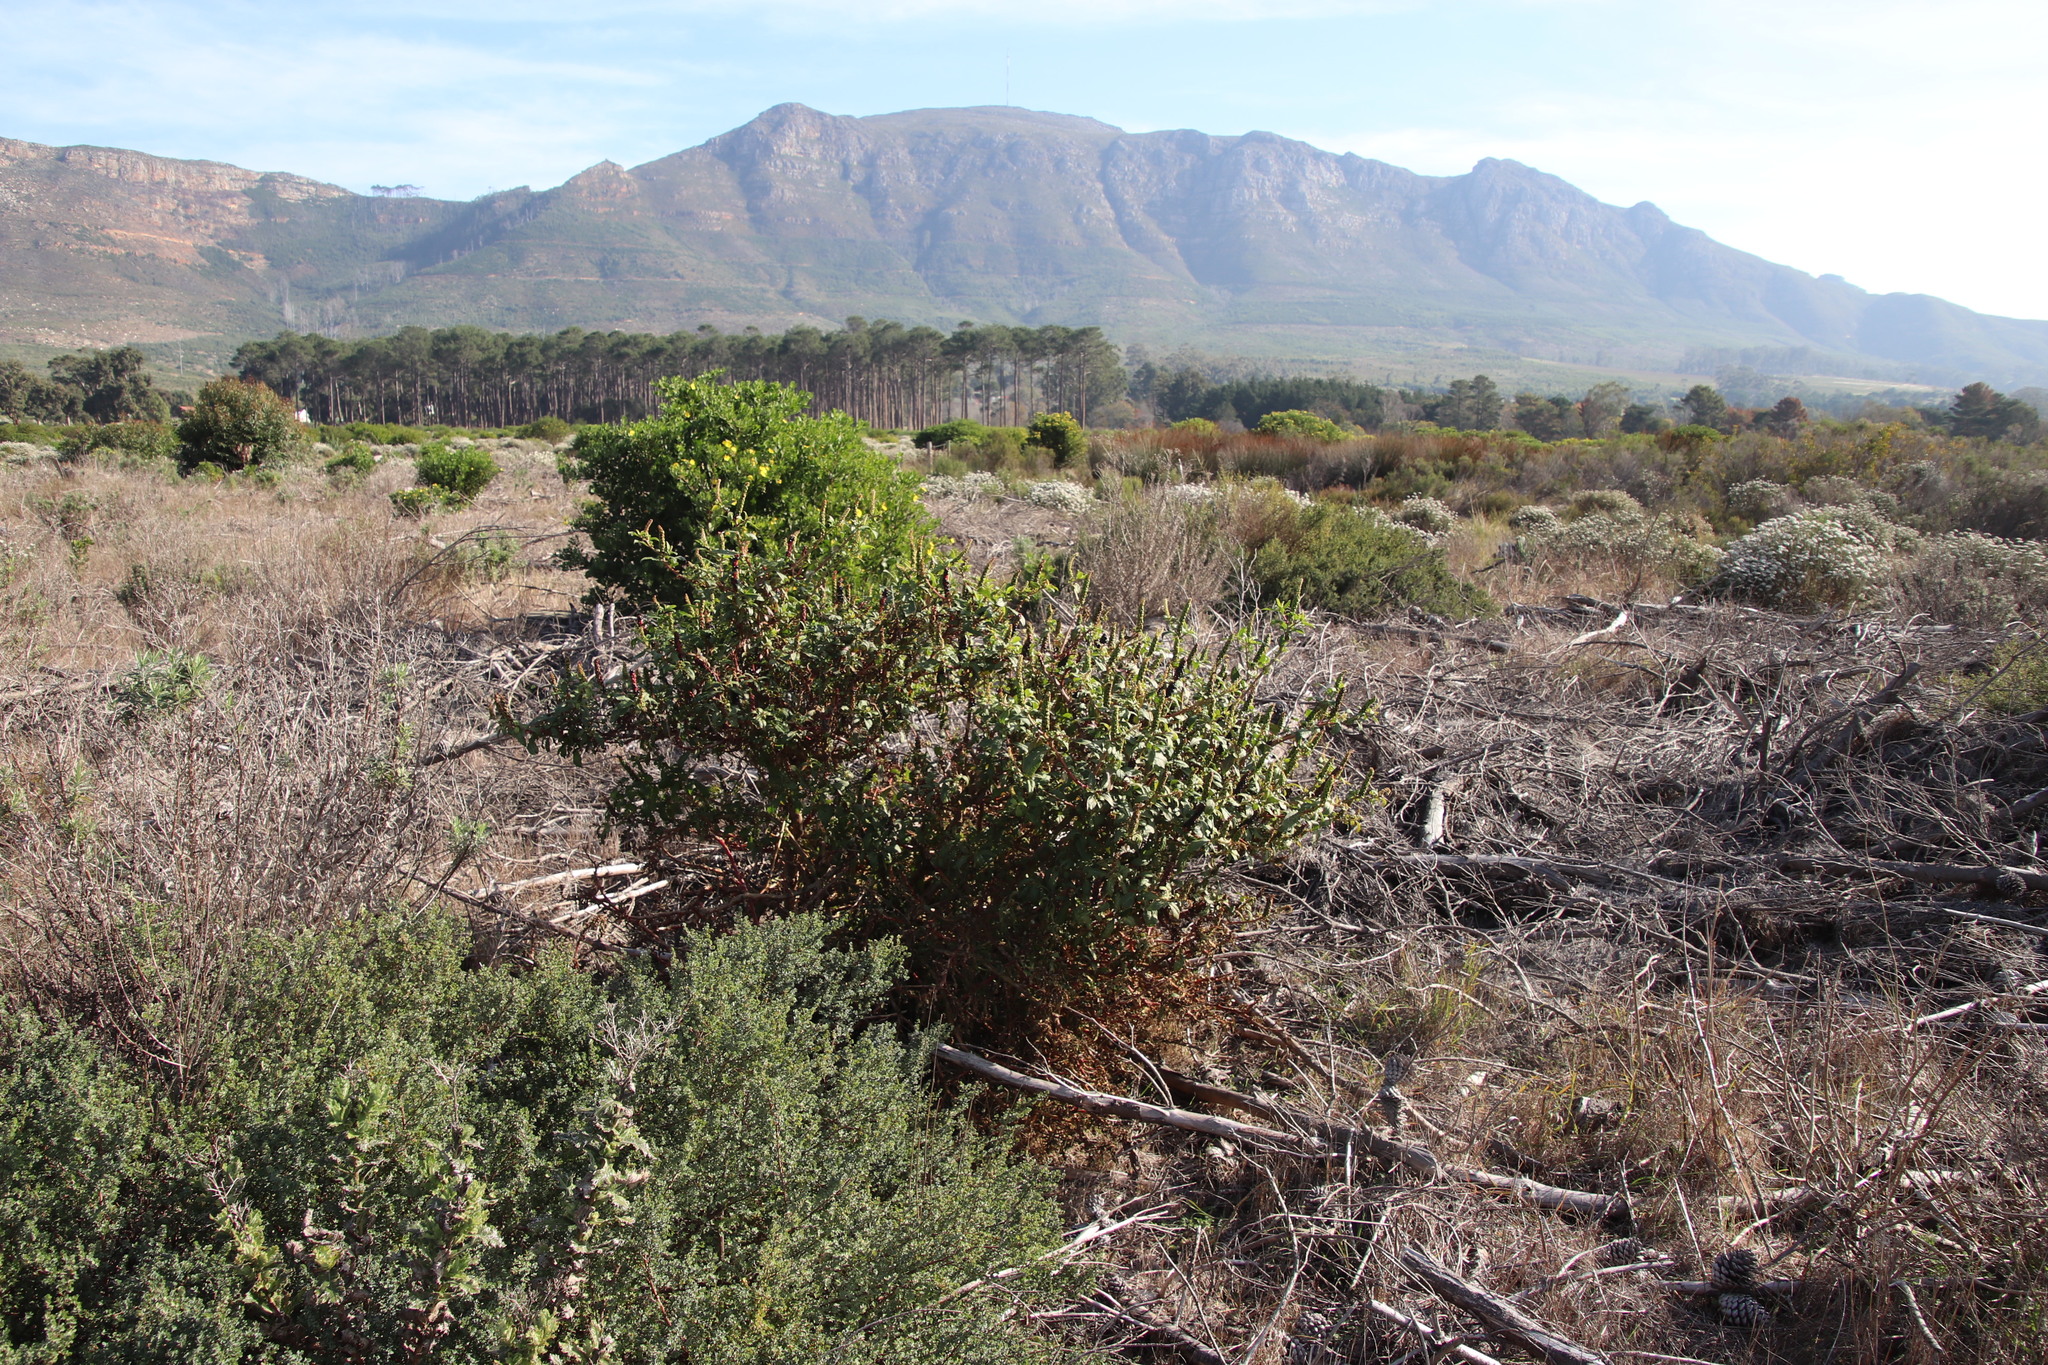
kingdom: Plantae
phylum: Tracheophyta
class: Magnoliopsida
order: Caryophyllales
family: Phytolaccaceae
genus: Phytolacca
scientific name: Phytolacca icosandra
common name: Button pokeweed
